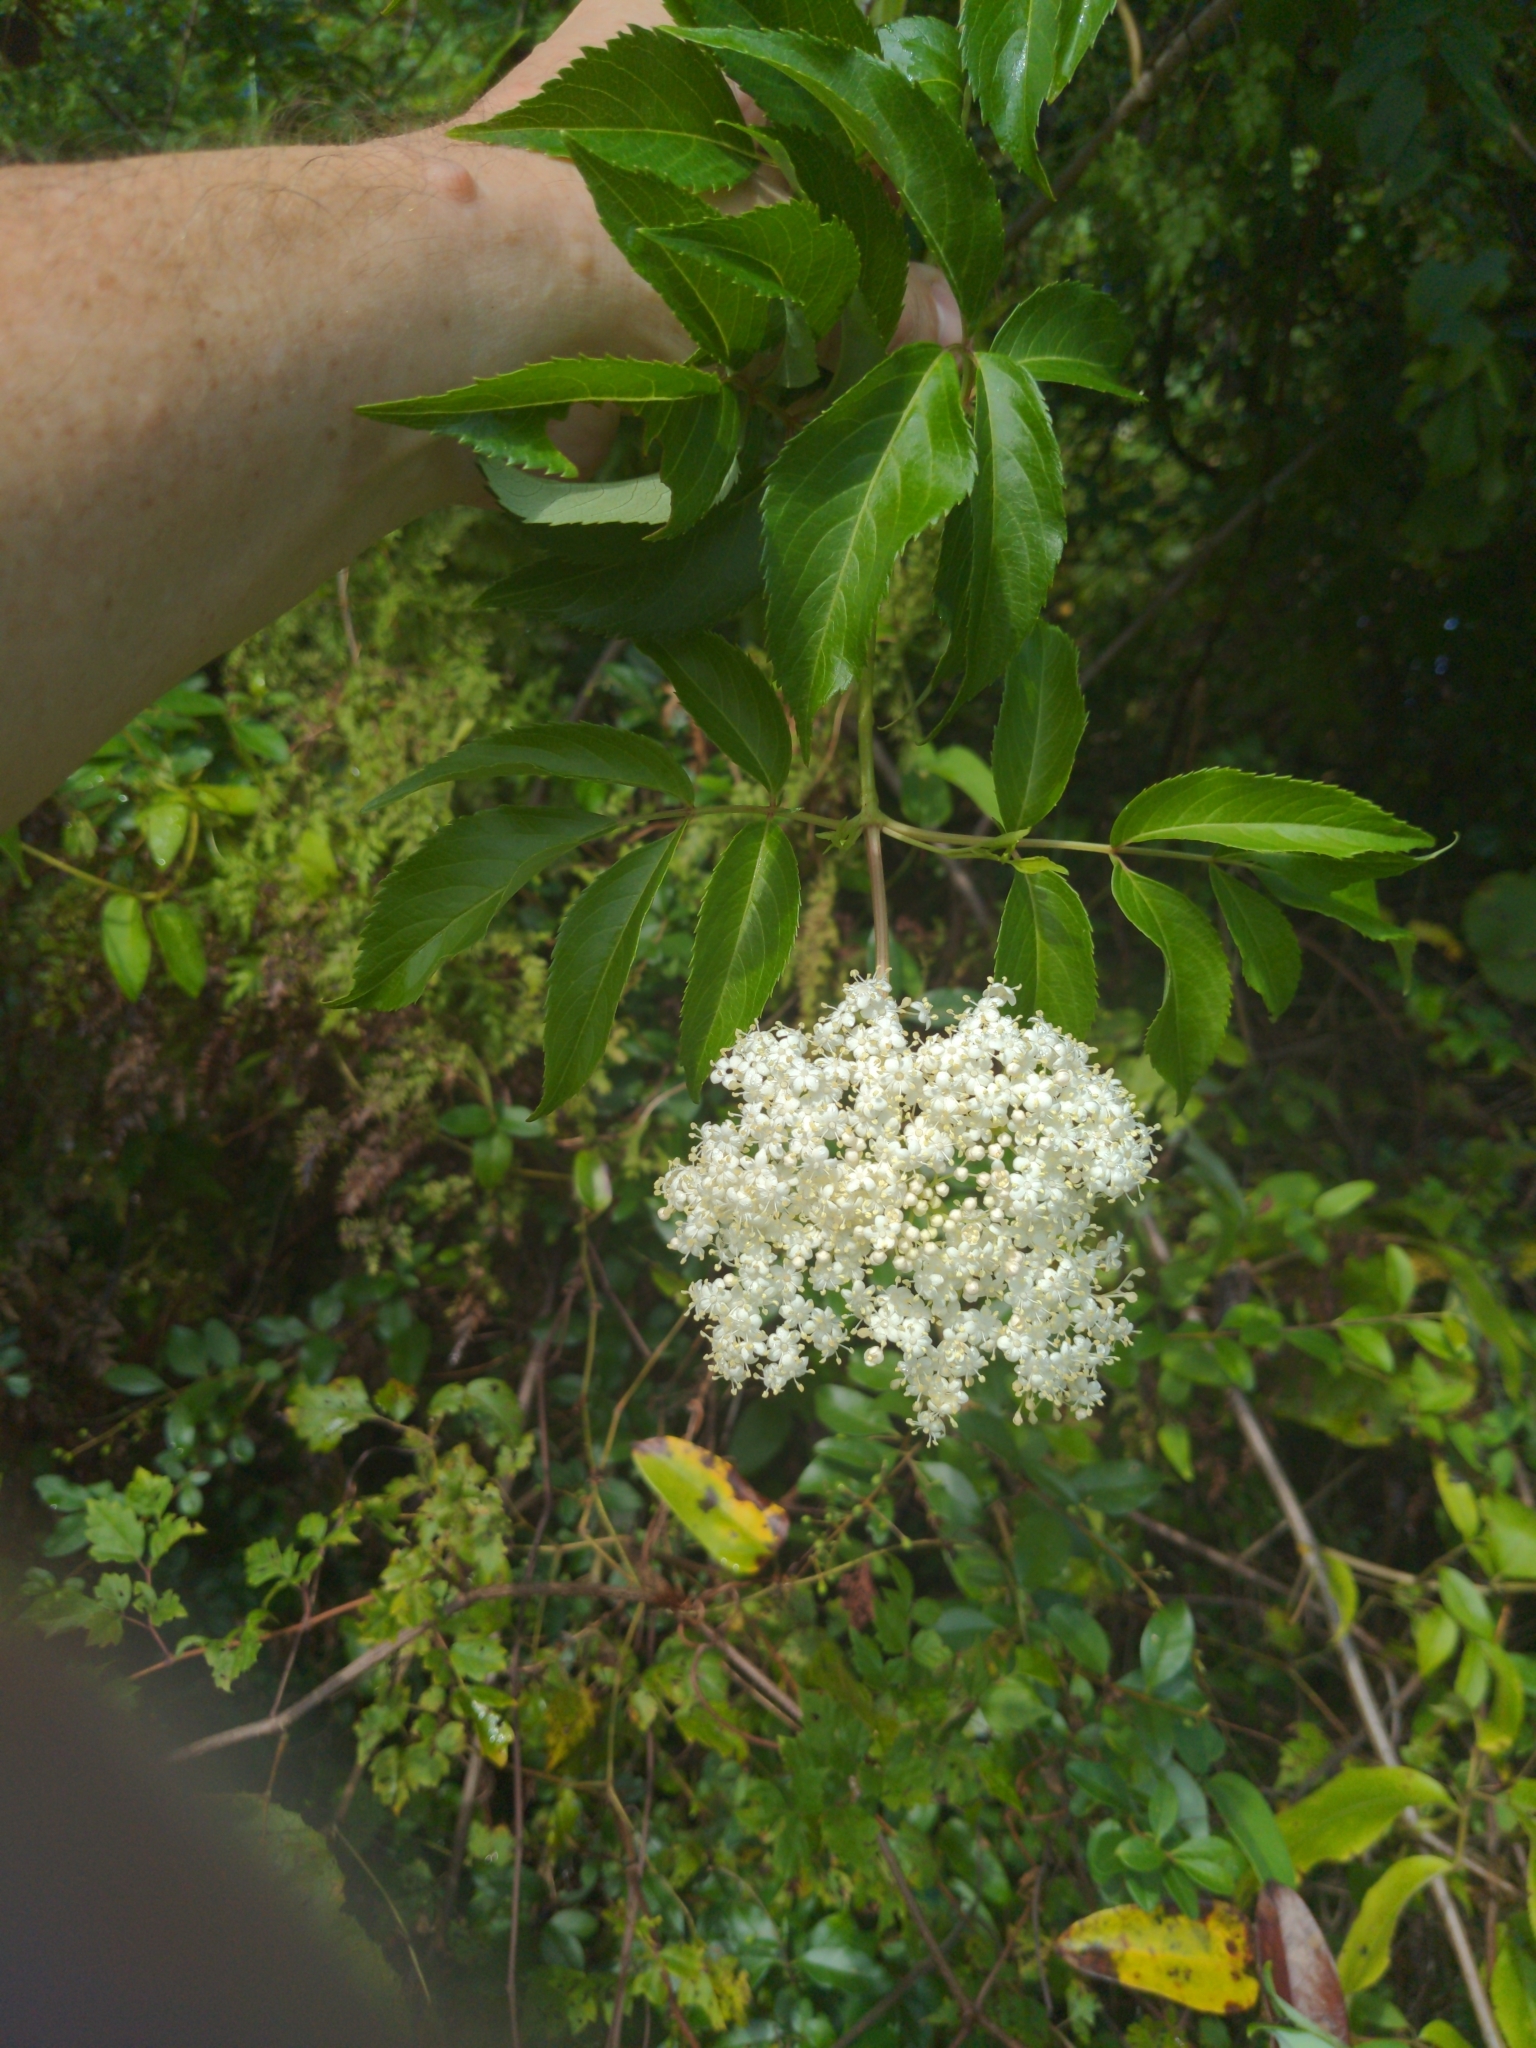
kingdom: Plantae
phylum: Tracheophyta
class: Magnoliopsida
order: Dipsacales
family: Viburnaceae
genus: Sambucus
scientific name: Sambucus canadensis
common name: American elder
